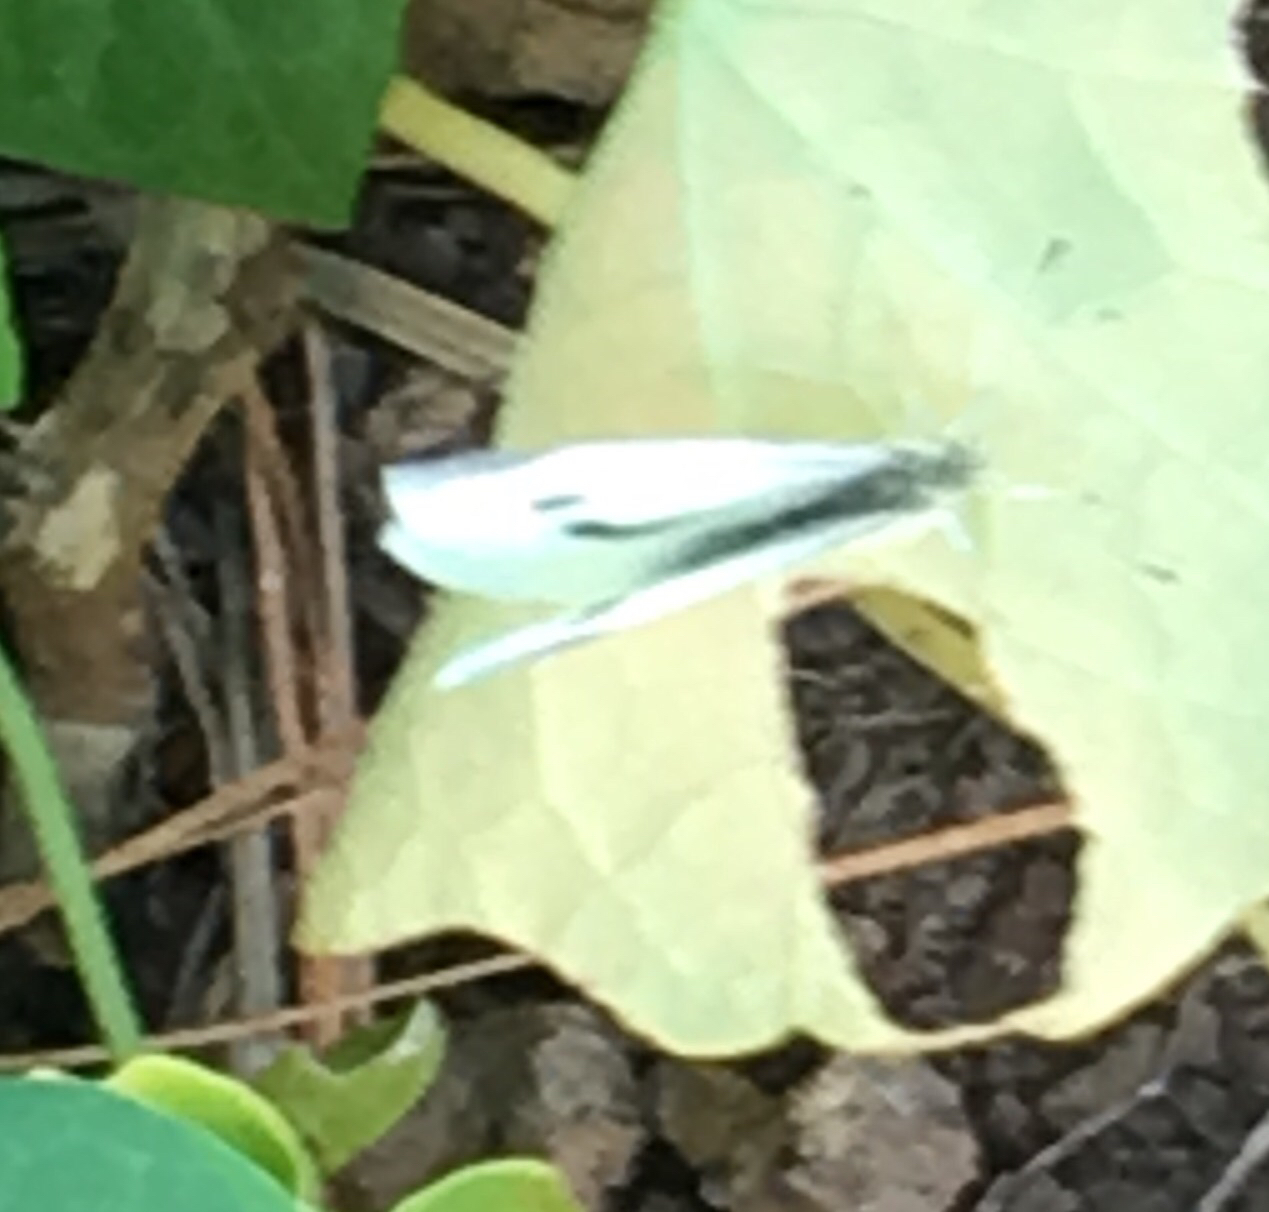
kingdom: Animalia
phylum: Arthropoda
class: Insecta
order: Lepidoptera
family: Pieridae
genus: Pieris
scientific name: Pieris rapae
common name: Small white
